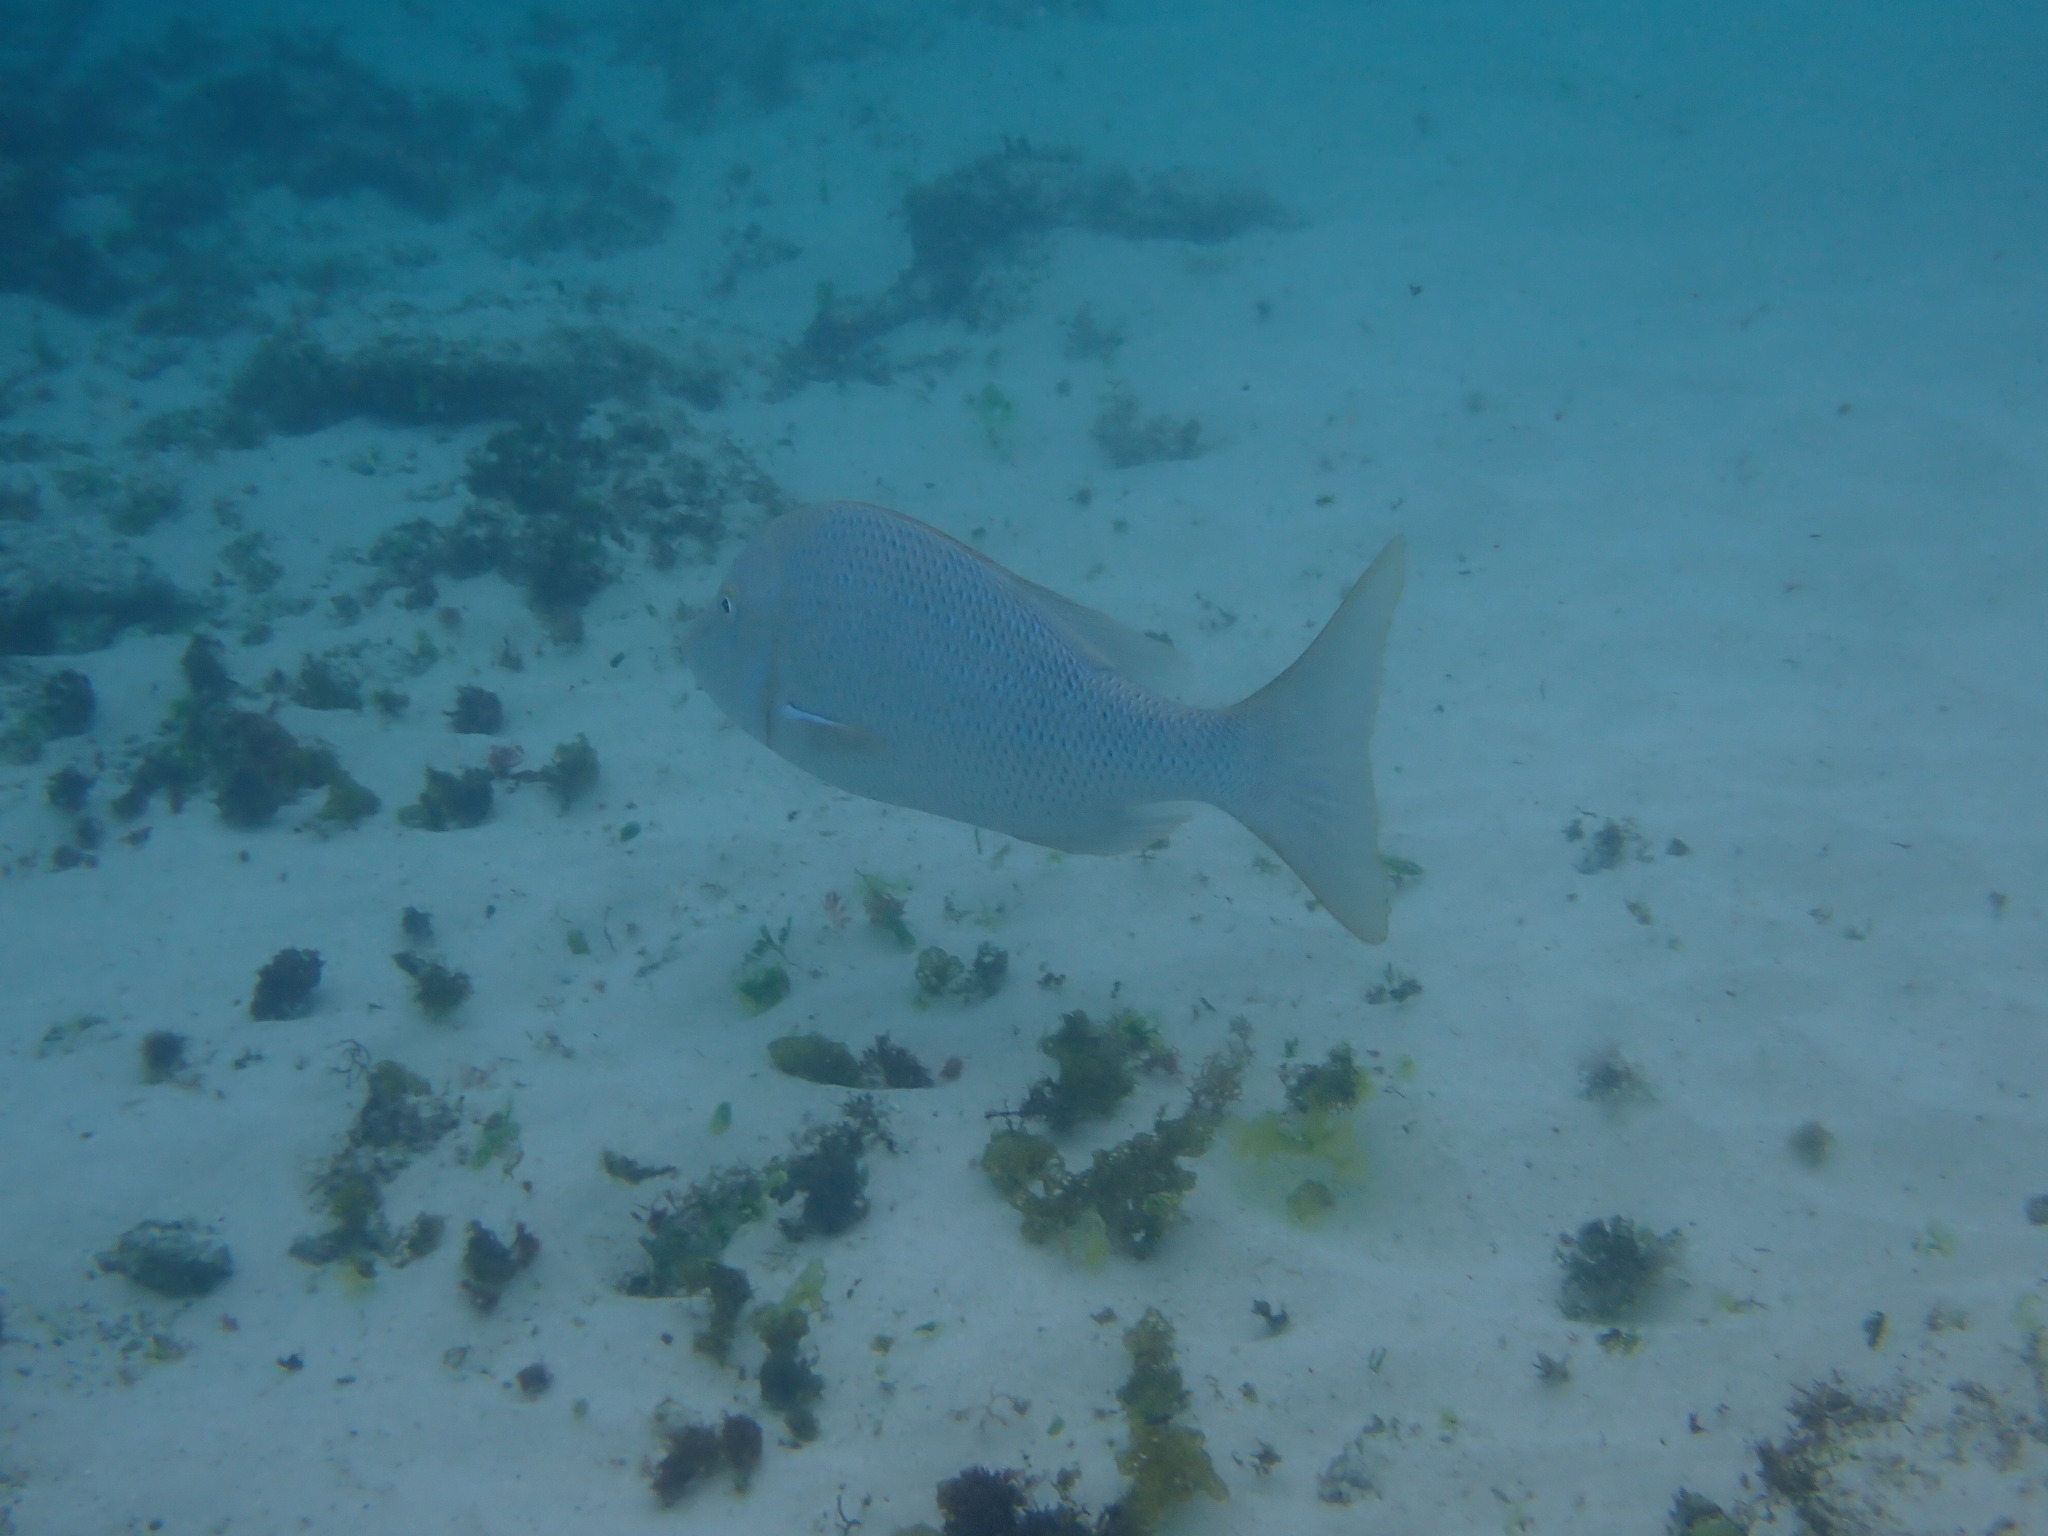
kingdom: Animalia
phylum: Chordata
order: Perciformes
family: Lethrinidae
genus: Lethrinus
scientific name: Lethrinus nebulosus
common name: Spangled emperor
